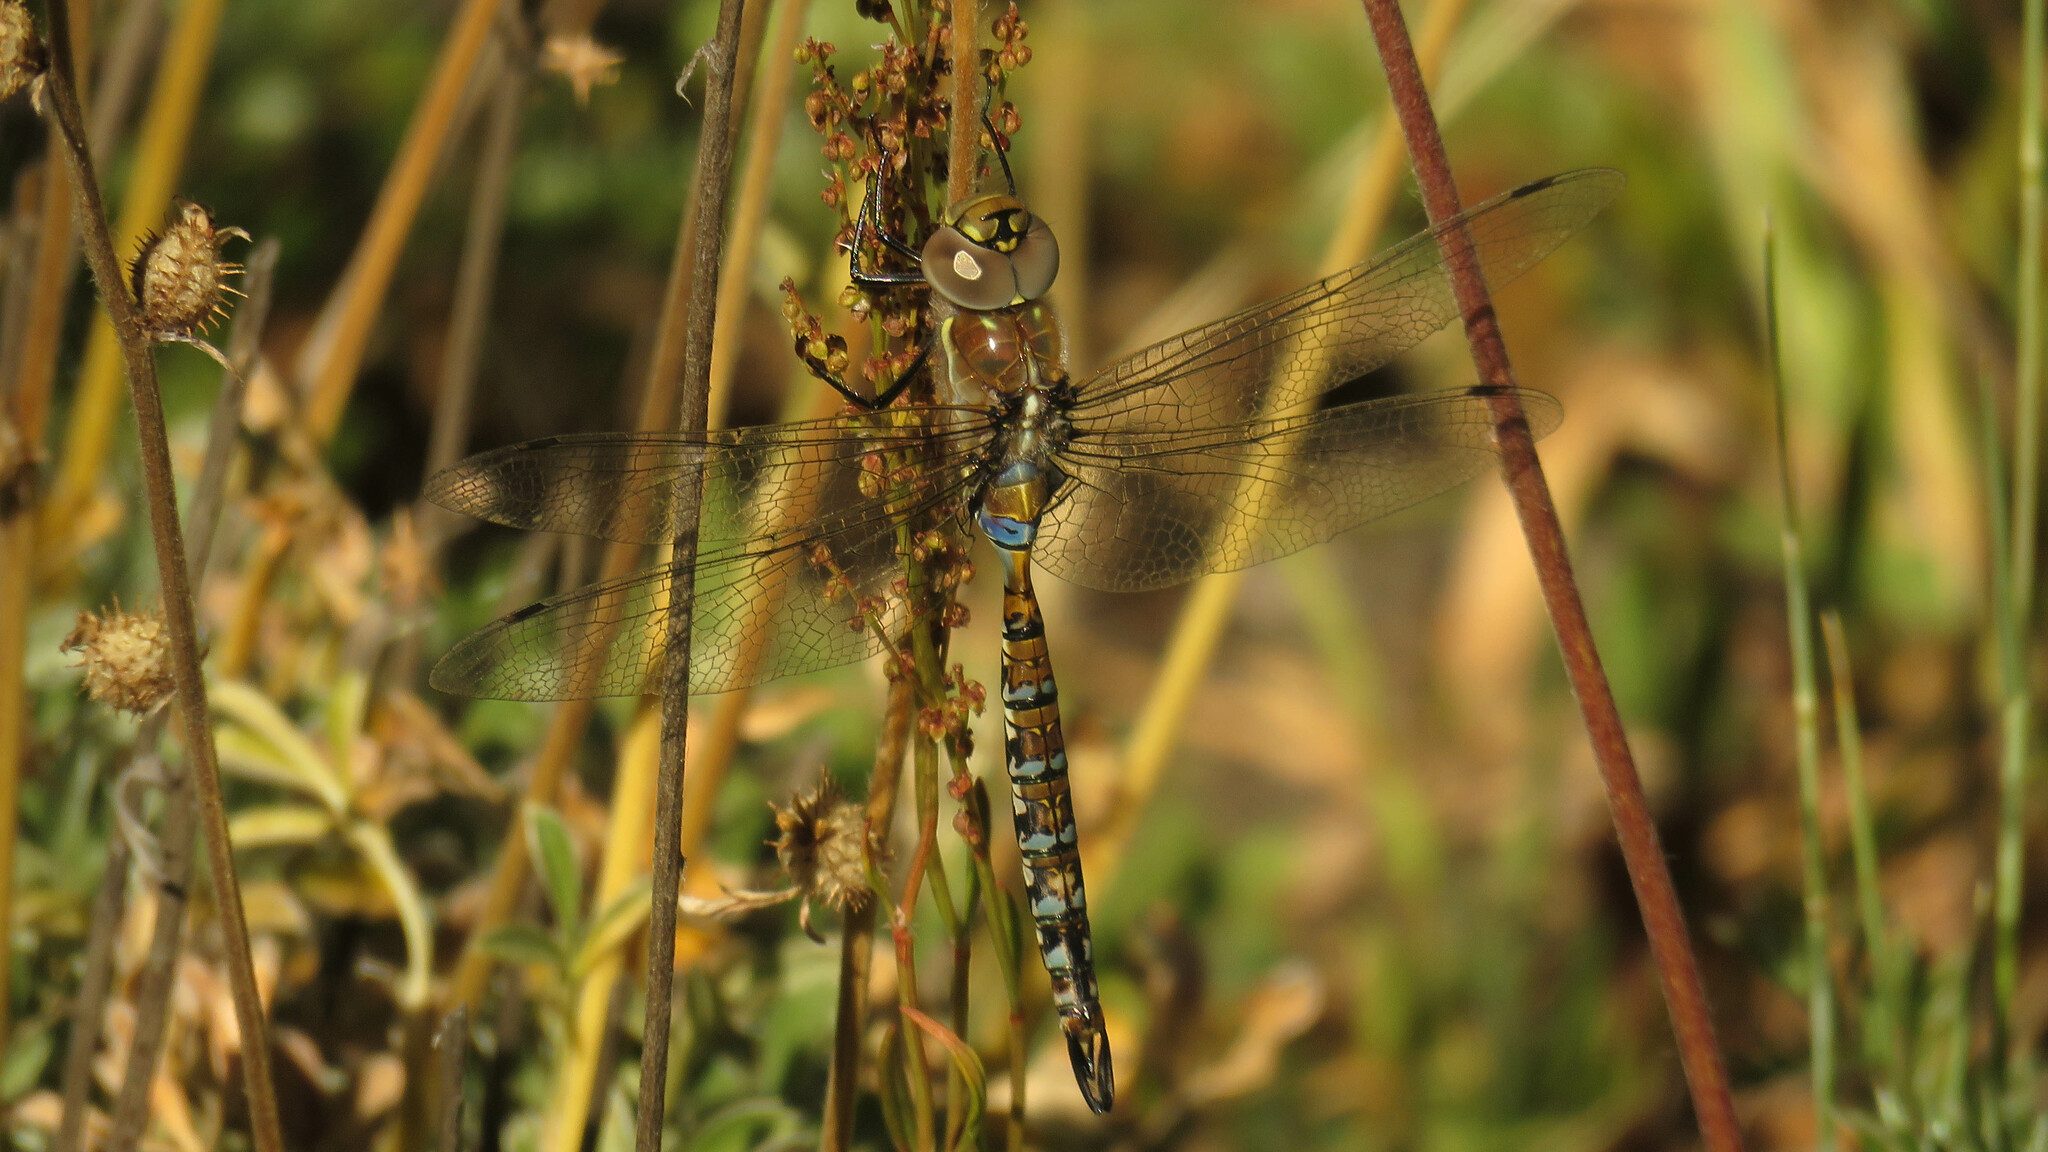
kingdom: Animalia
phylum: Arthropoda
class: Insecta
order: Odonata
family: Aeshnidae
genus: Rhionaeschna
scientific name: Rhionaeschna diffinis
